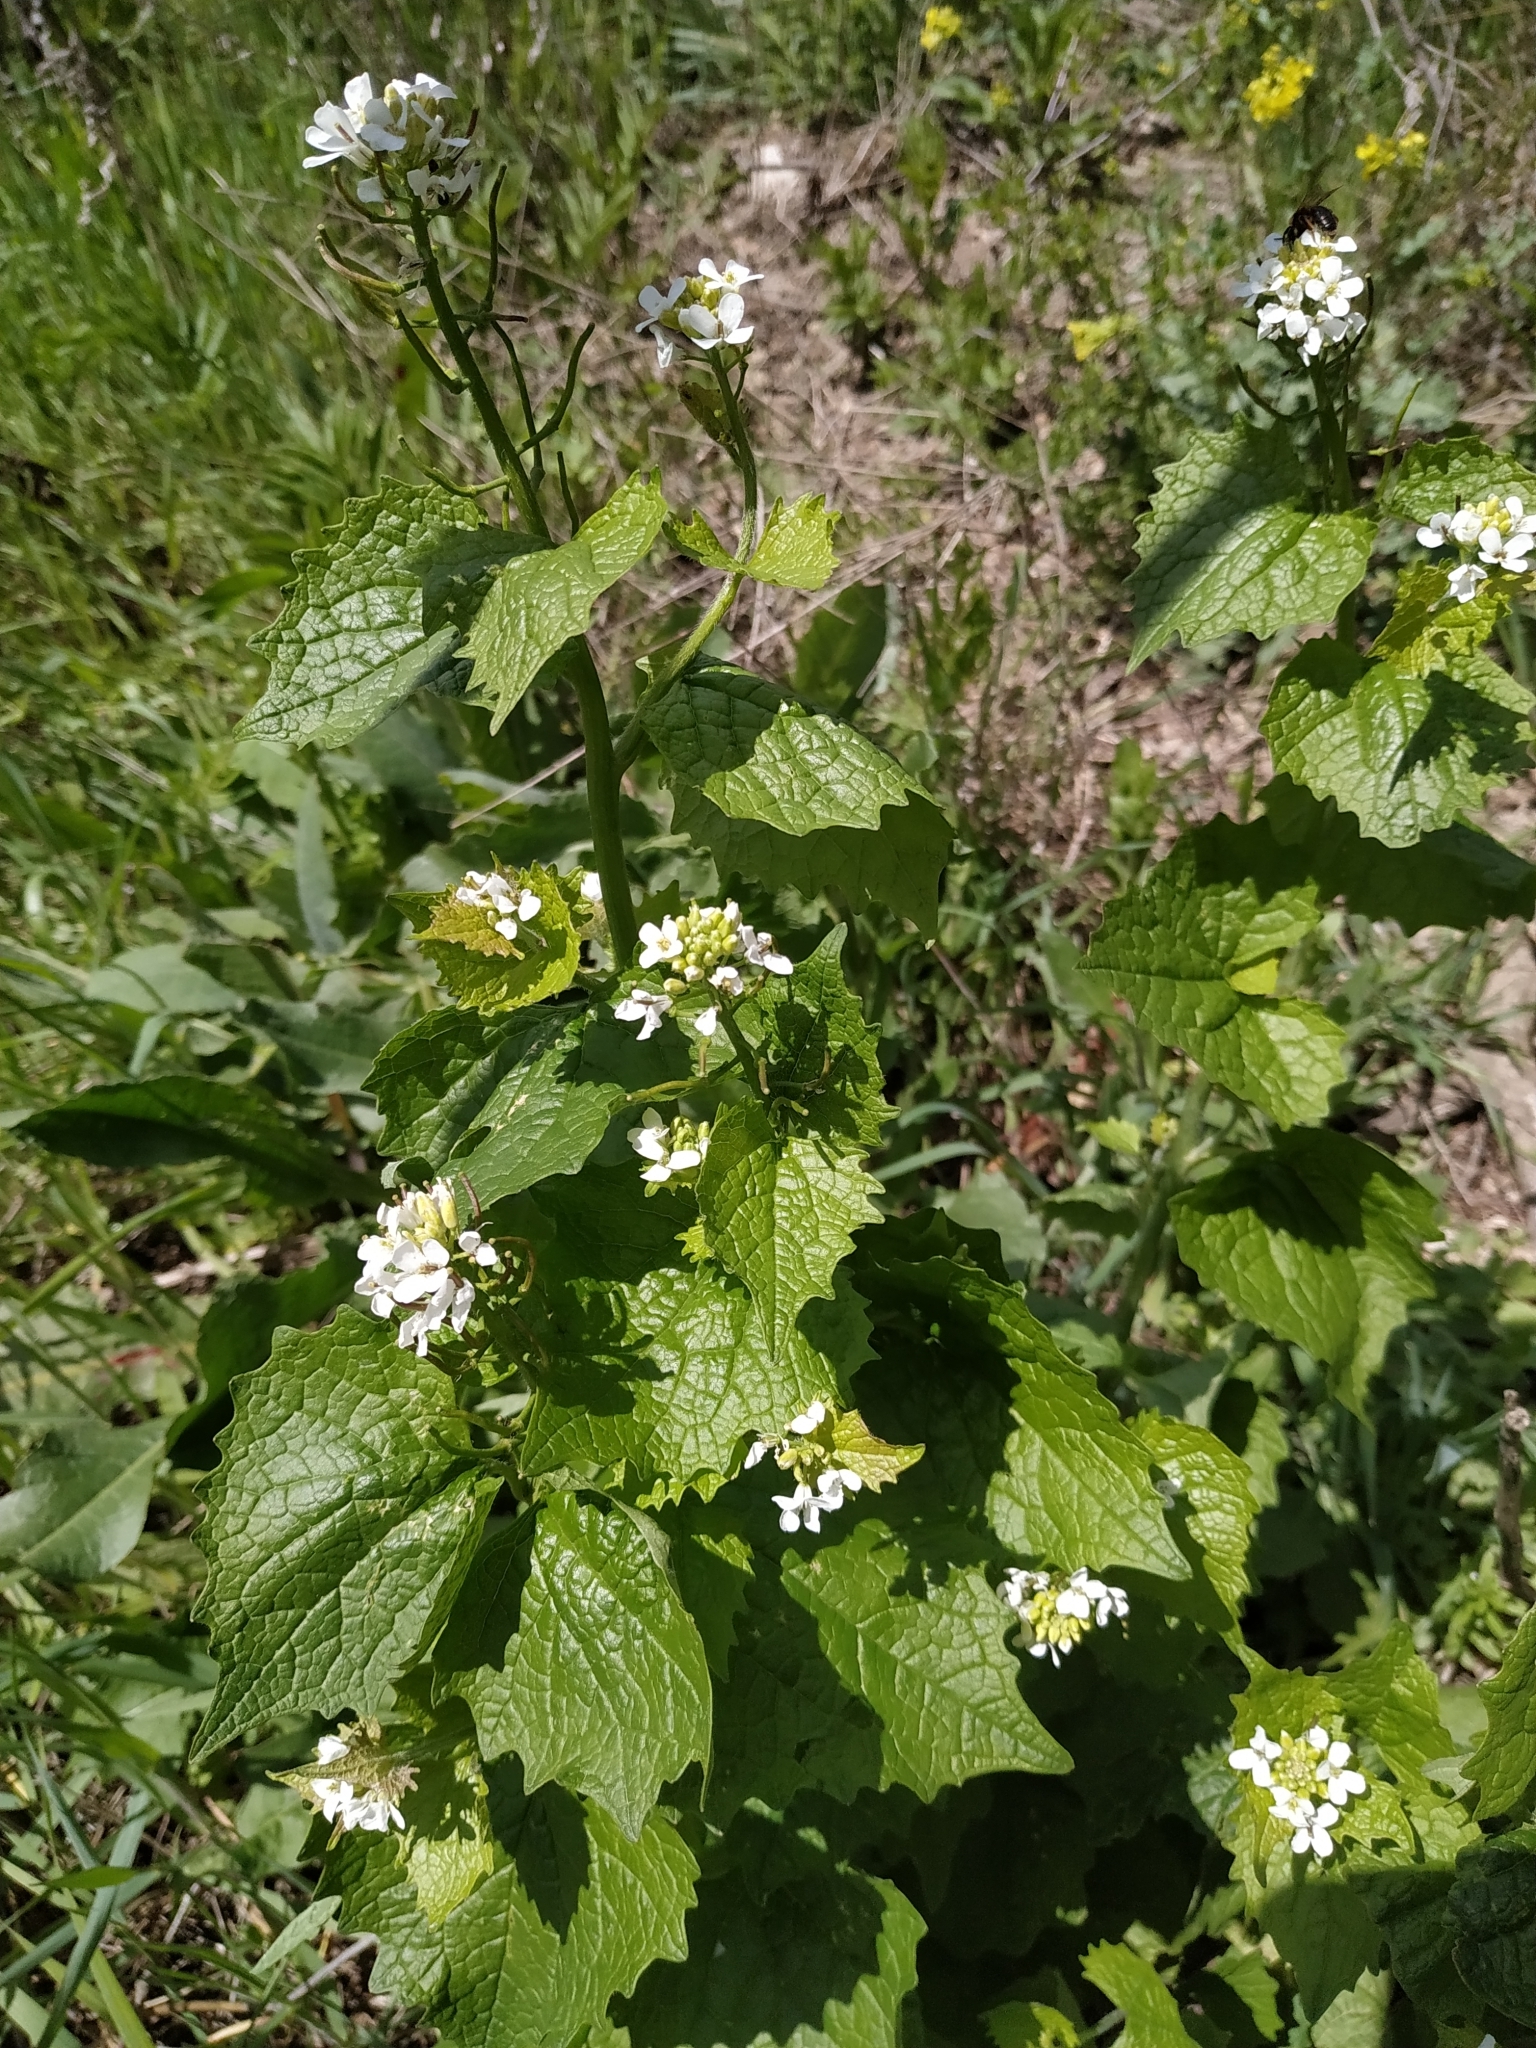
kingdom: Plantae
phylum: Tracheophyta
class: Magnoliopsida
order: Brassicales
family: Brassicaceae
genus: Alliaria
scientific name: Alliaria petiolata
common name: Garlic mustard
